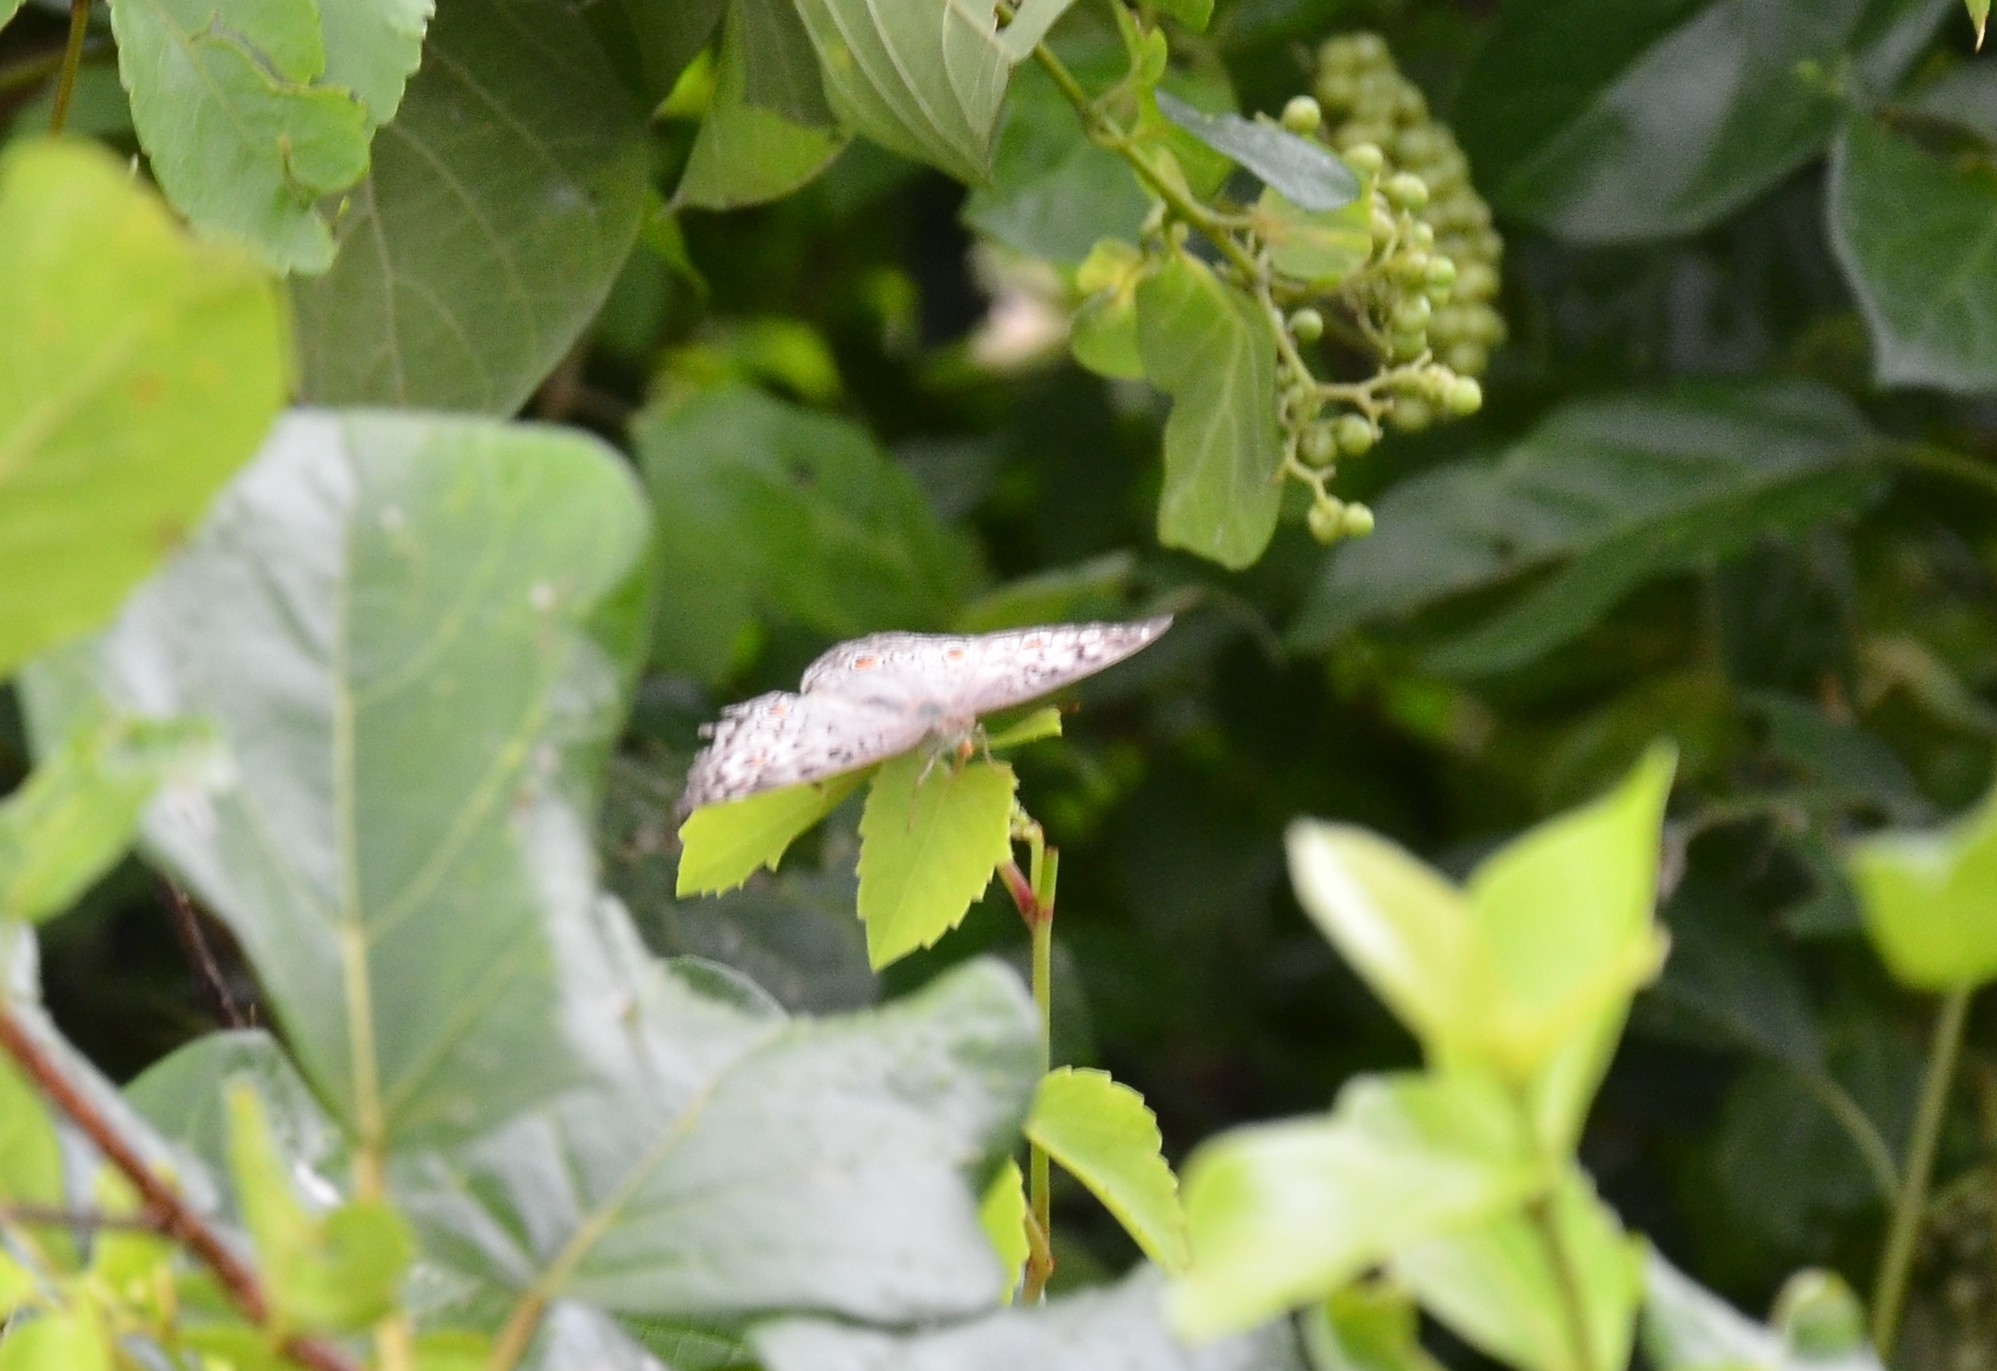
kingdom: Animalia
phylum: Arthropoda
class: Insecta
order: Lepidoptera
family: Nymphalidae
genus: Junonia
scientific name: Junonia atlites
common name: Grey pansy
